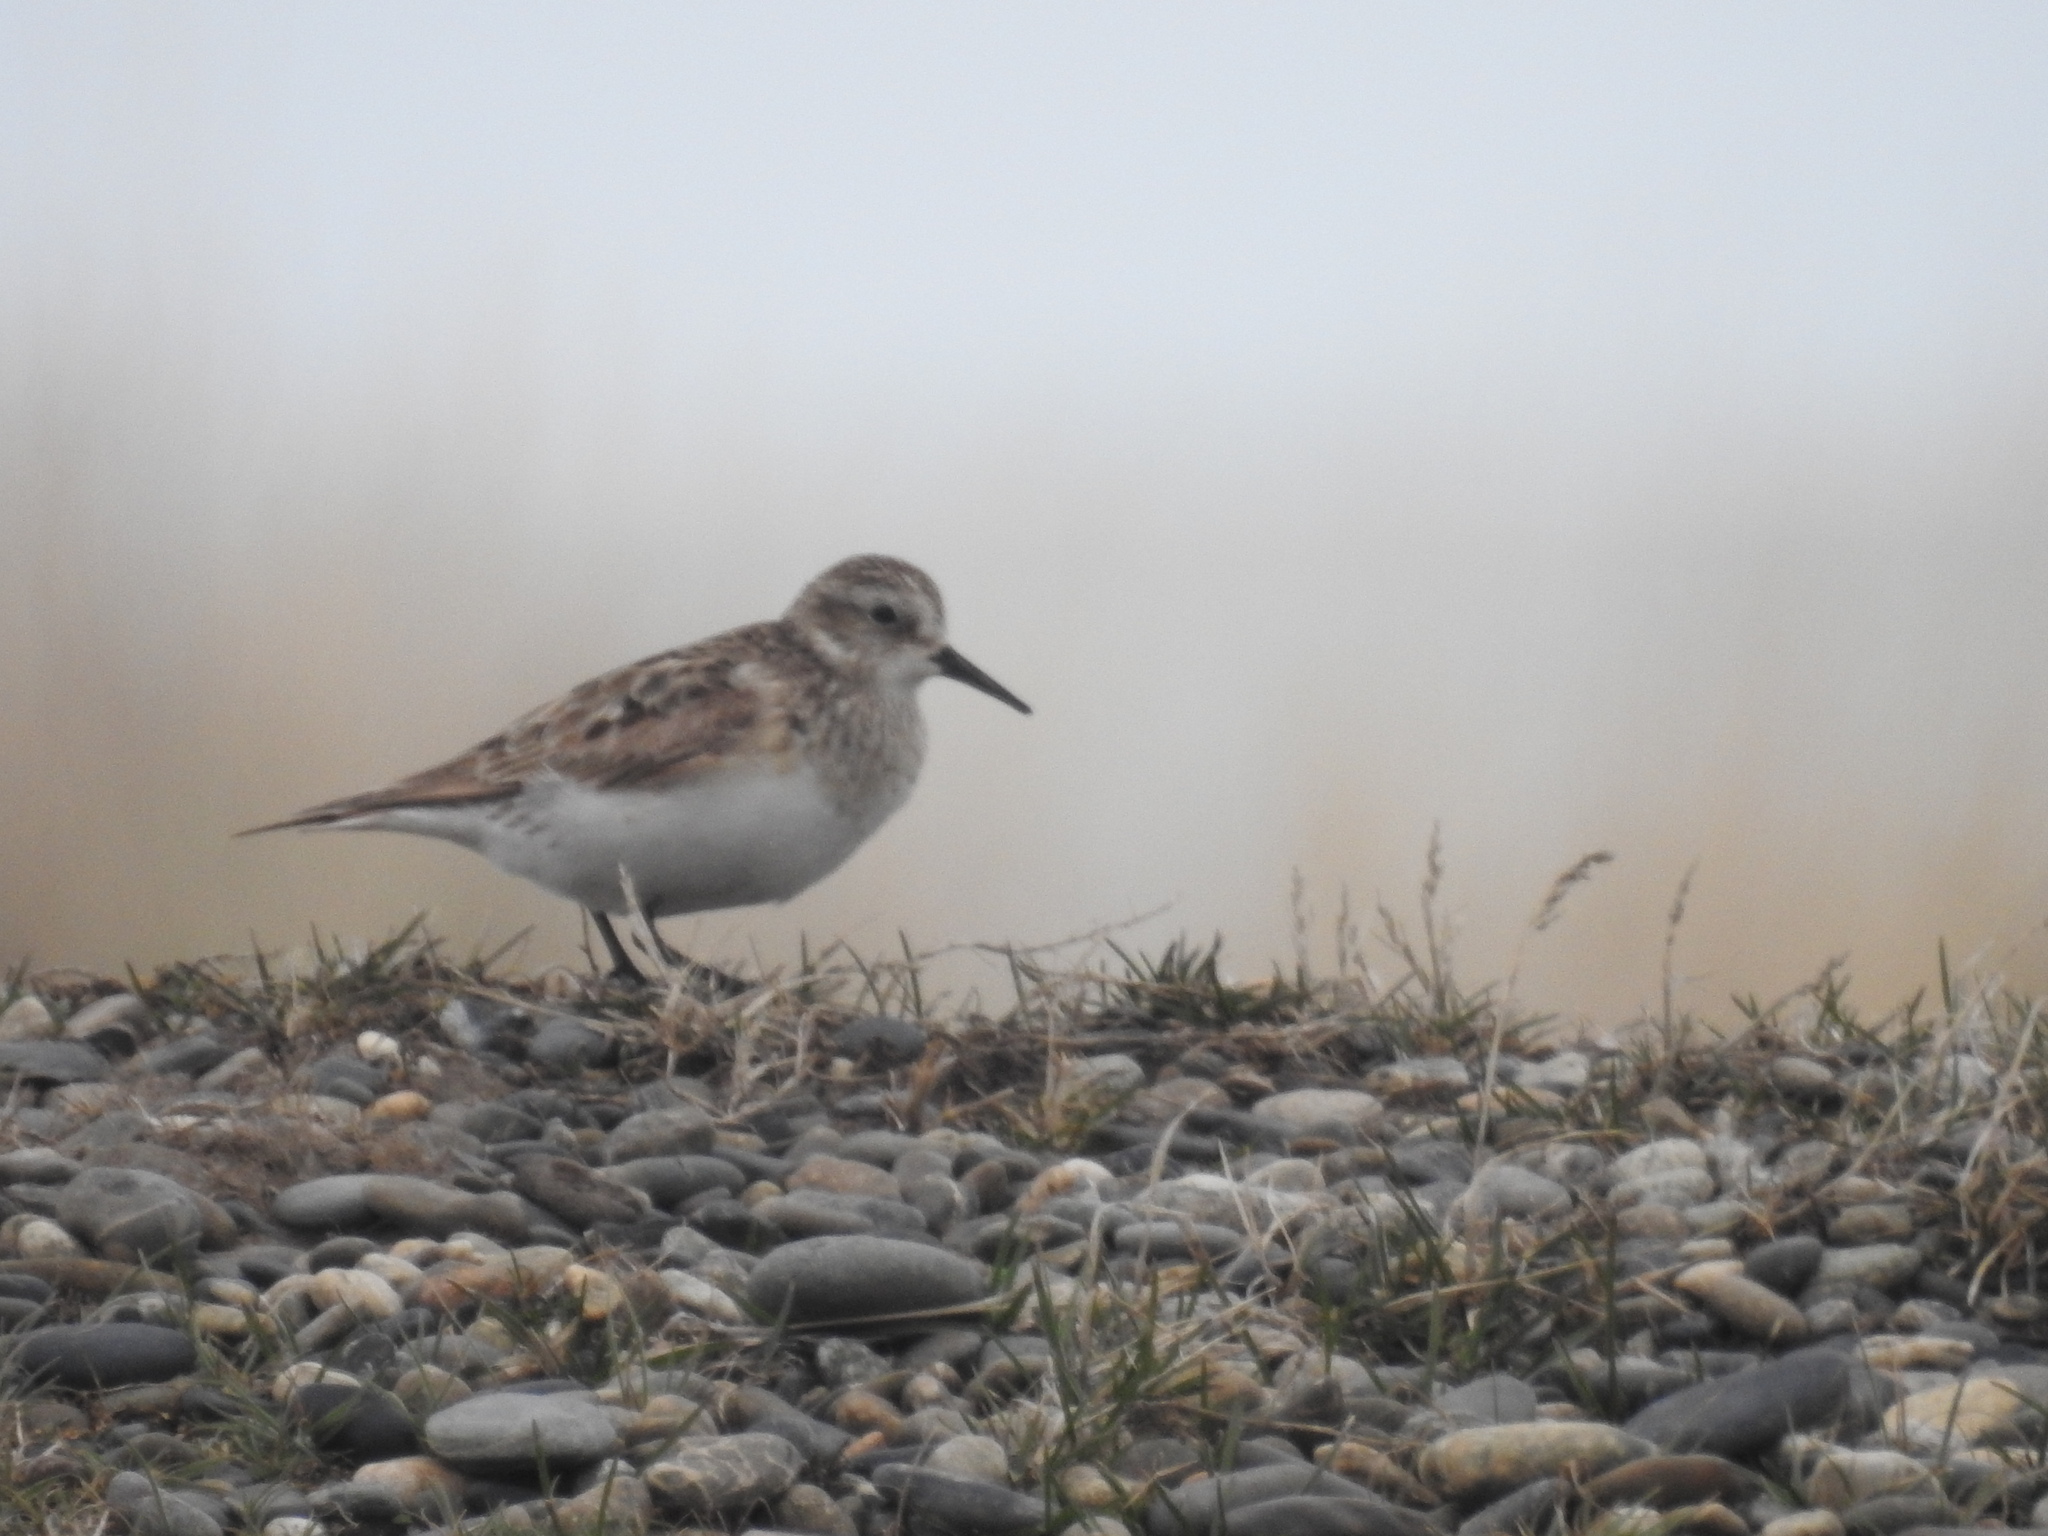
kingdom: Animalia
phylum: Chordata
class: Aves
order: Charadriiformes
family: Scolopacidae
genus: Calidris
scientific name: Calidris bairdii
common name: Baird's sandpiper
